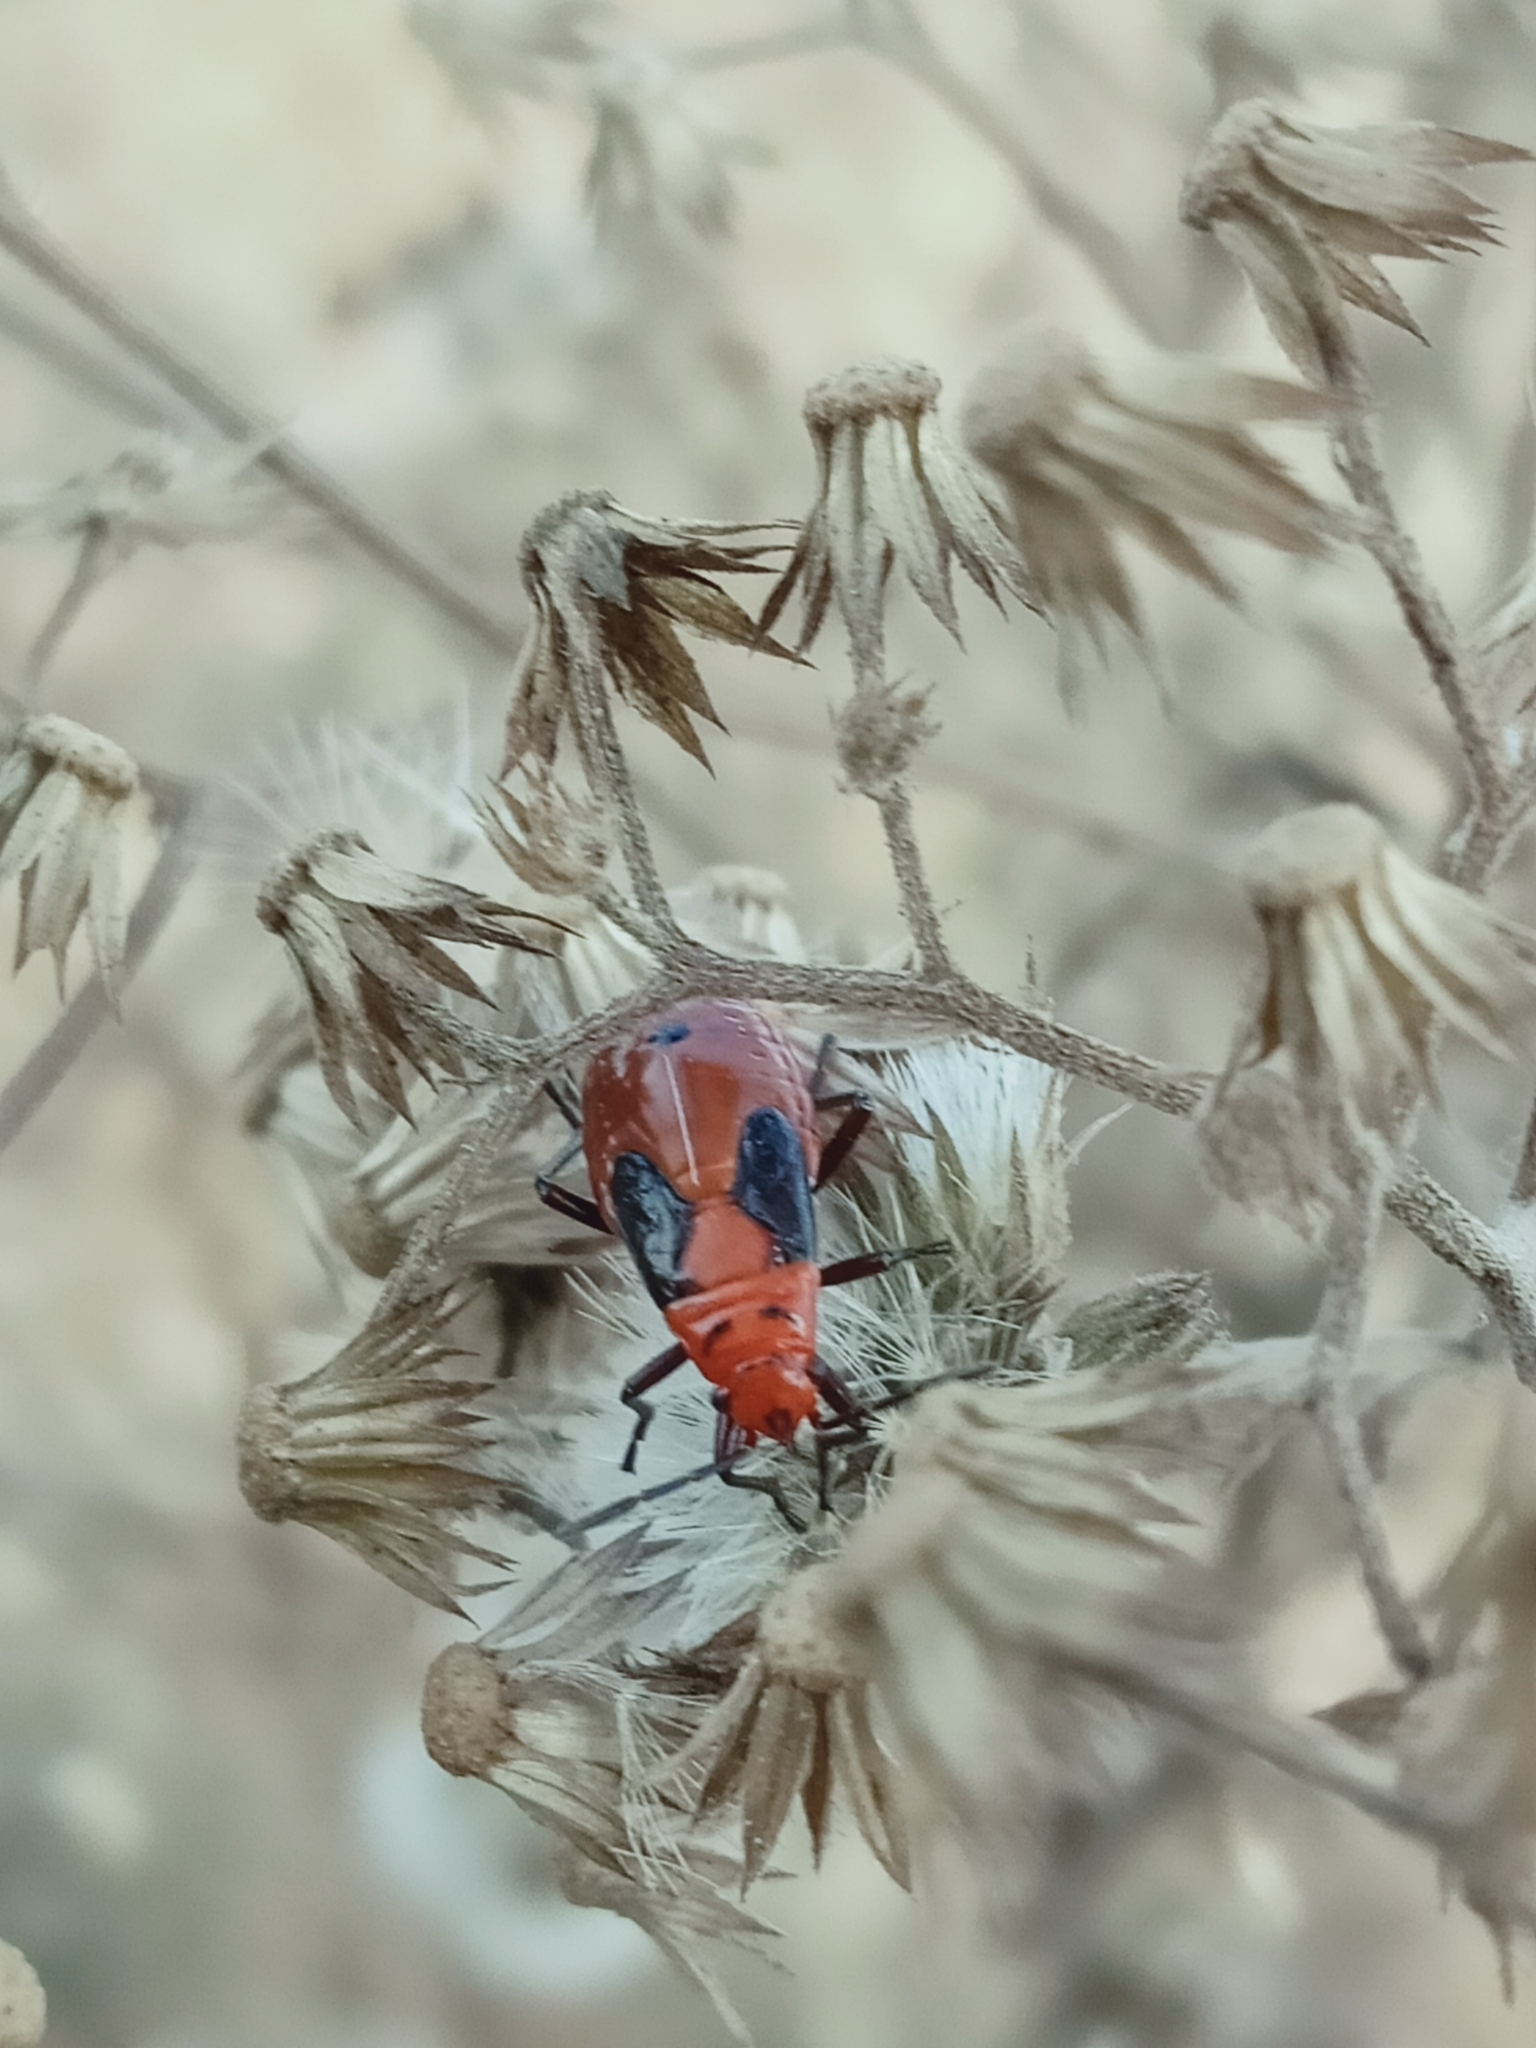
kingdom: Animalia
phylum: Arthropoda
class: Insecta
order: Hemiptera
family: Lygaeidae
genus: Spilostethus
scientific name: Spilostethus hospes
